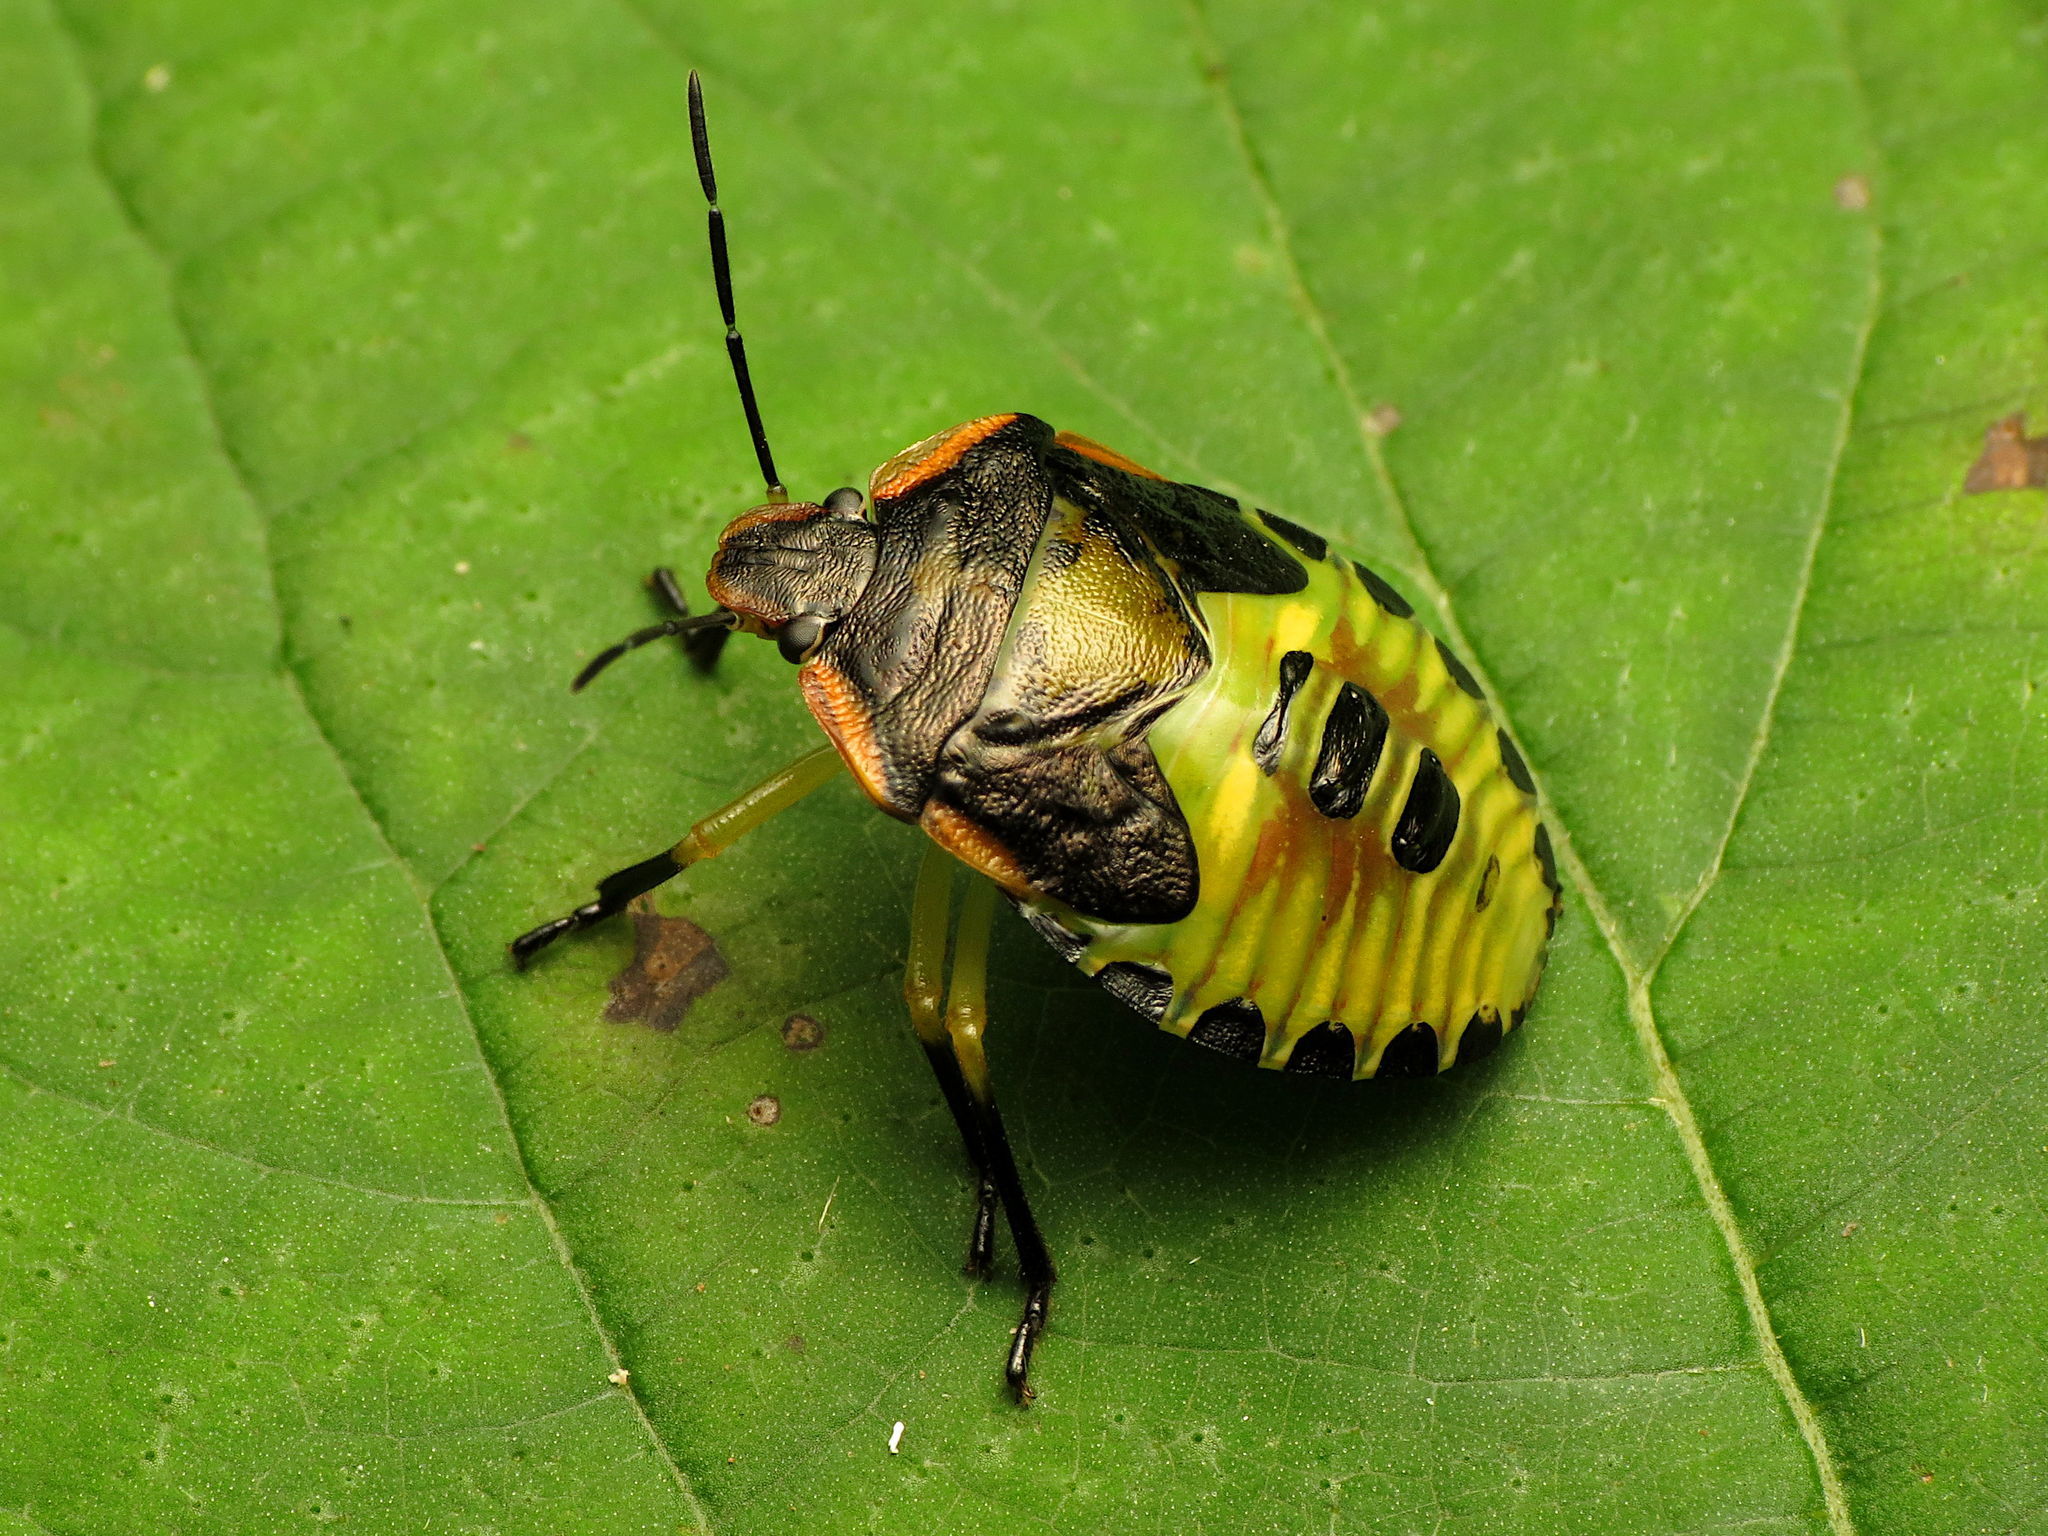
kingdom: Animalia
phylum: Arthropoda
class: Insecta
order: Hemiptera
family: Pentatomidae
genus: Chinavia
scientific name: Chinavia hilaris
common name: Green stink bug
